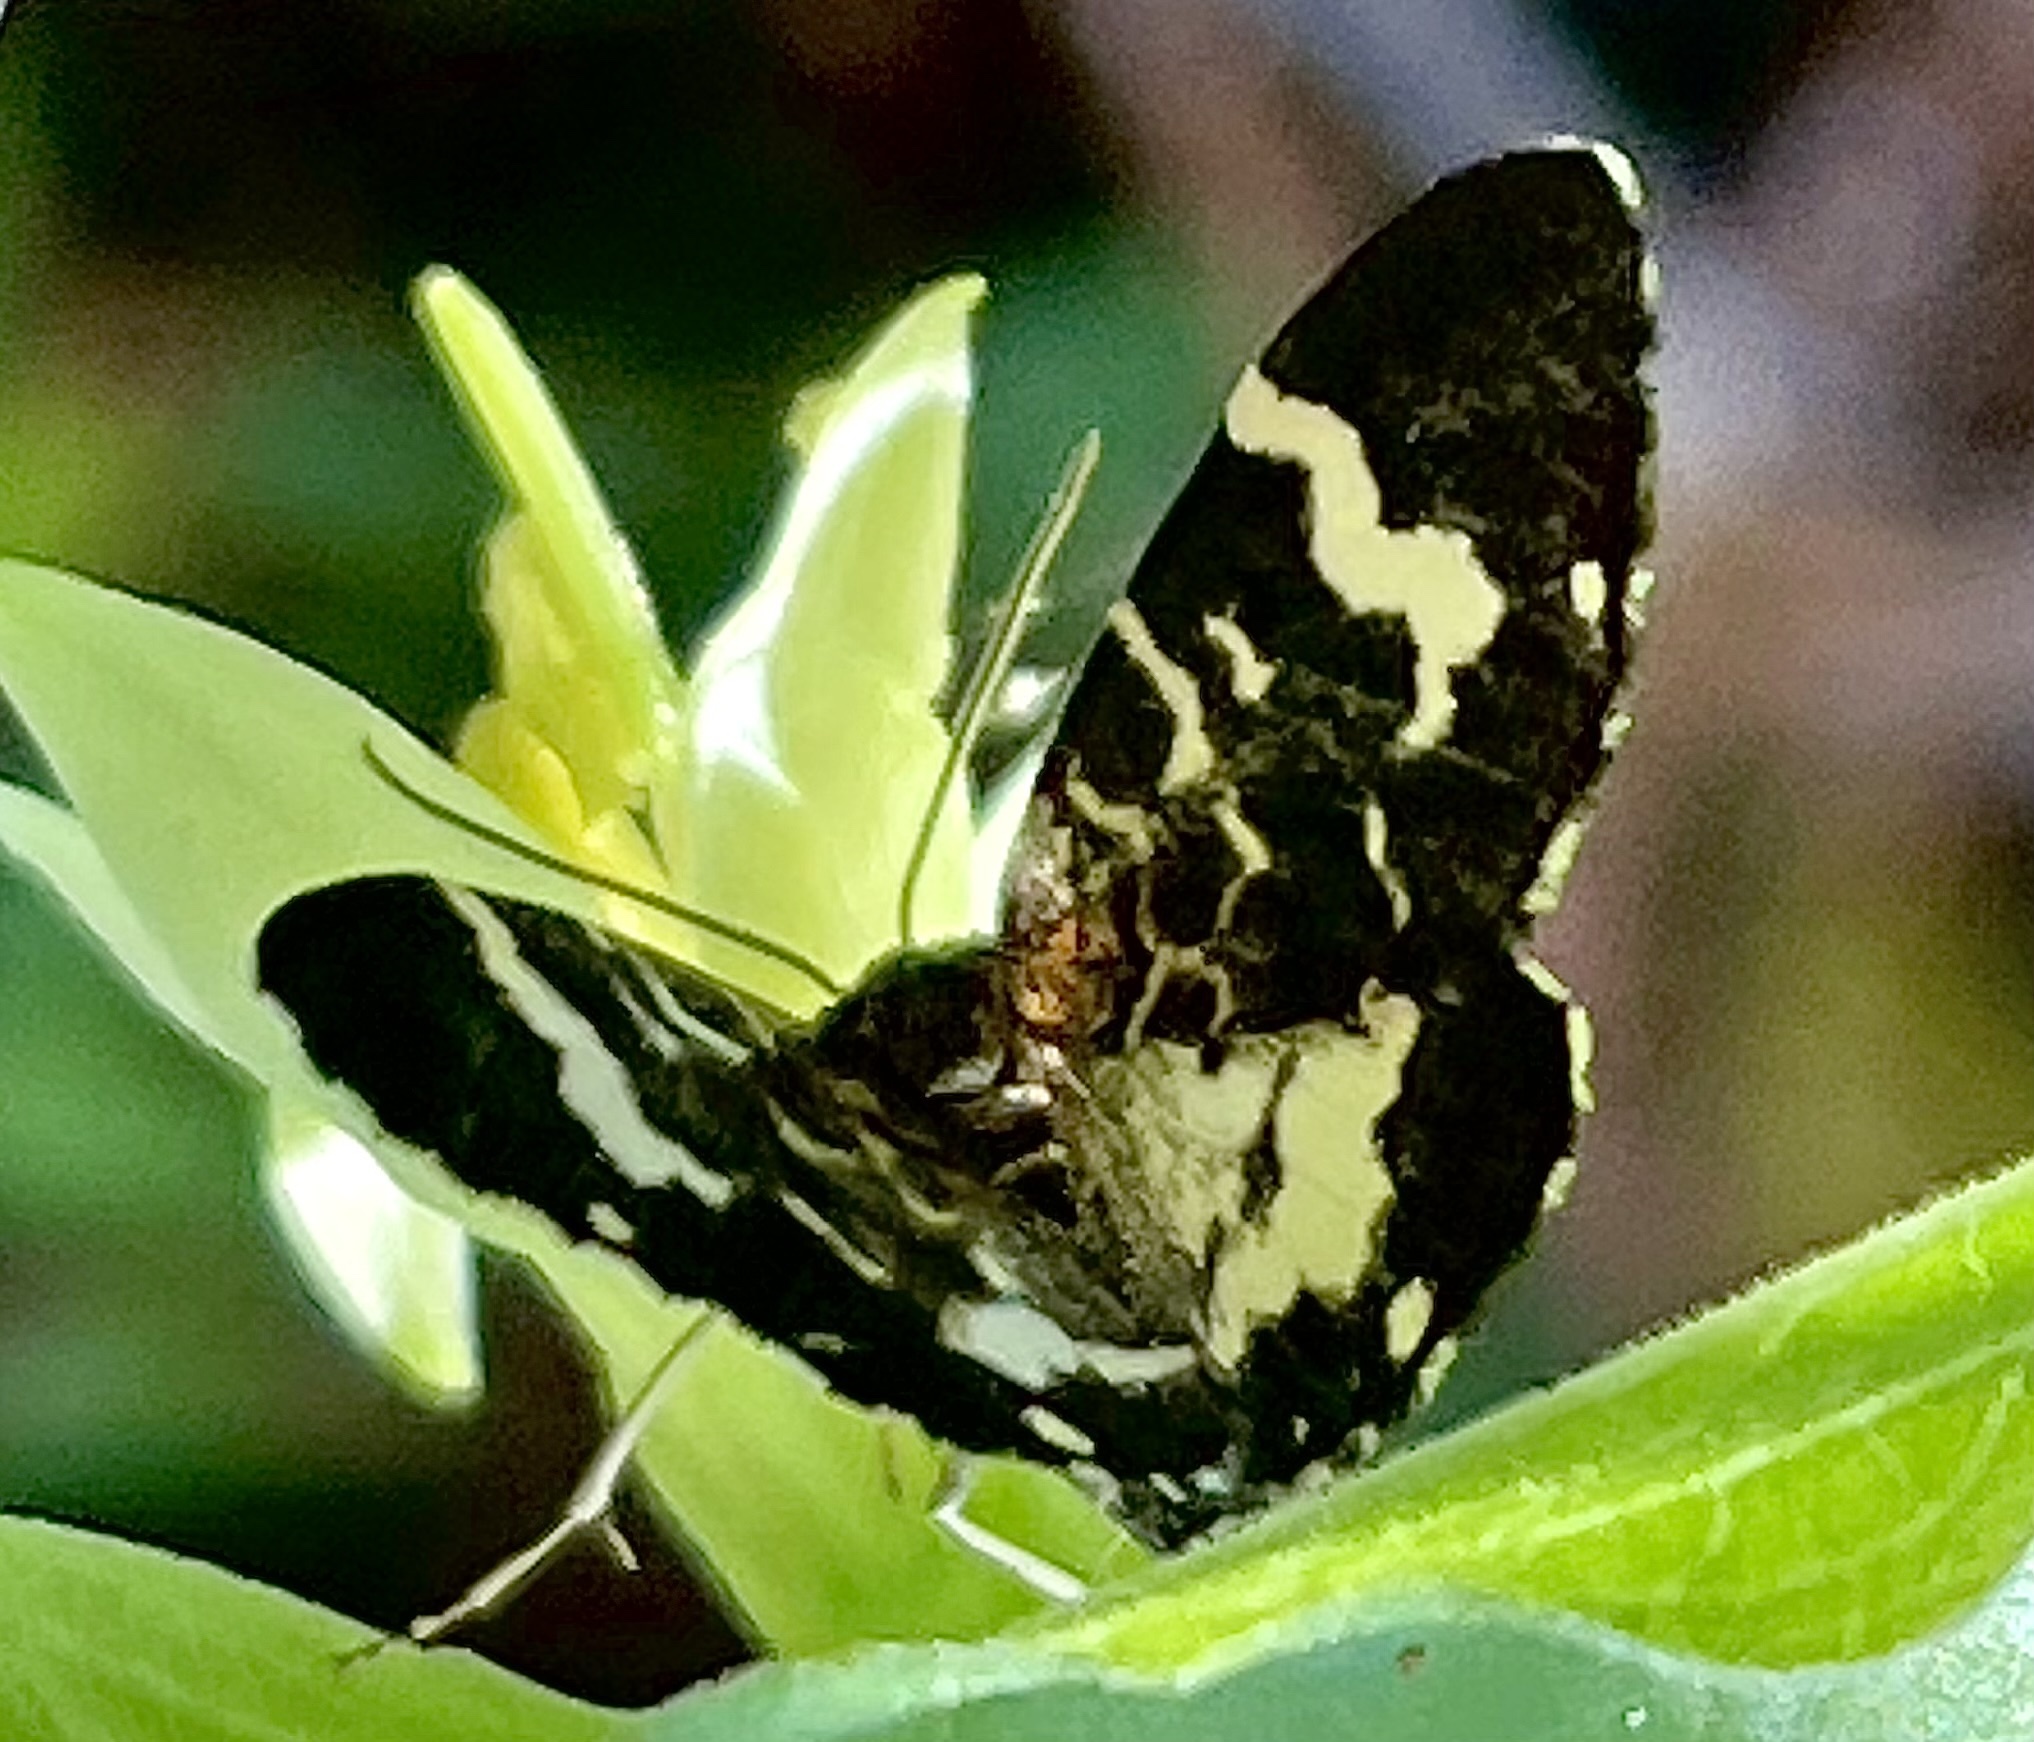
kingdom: Animalia
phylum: Arthropoda
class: Insecta
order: Lepidoptera
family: Geometridae
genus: Trichodezia
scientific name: Trichodezia californiata
